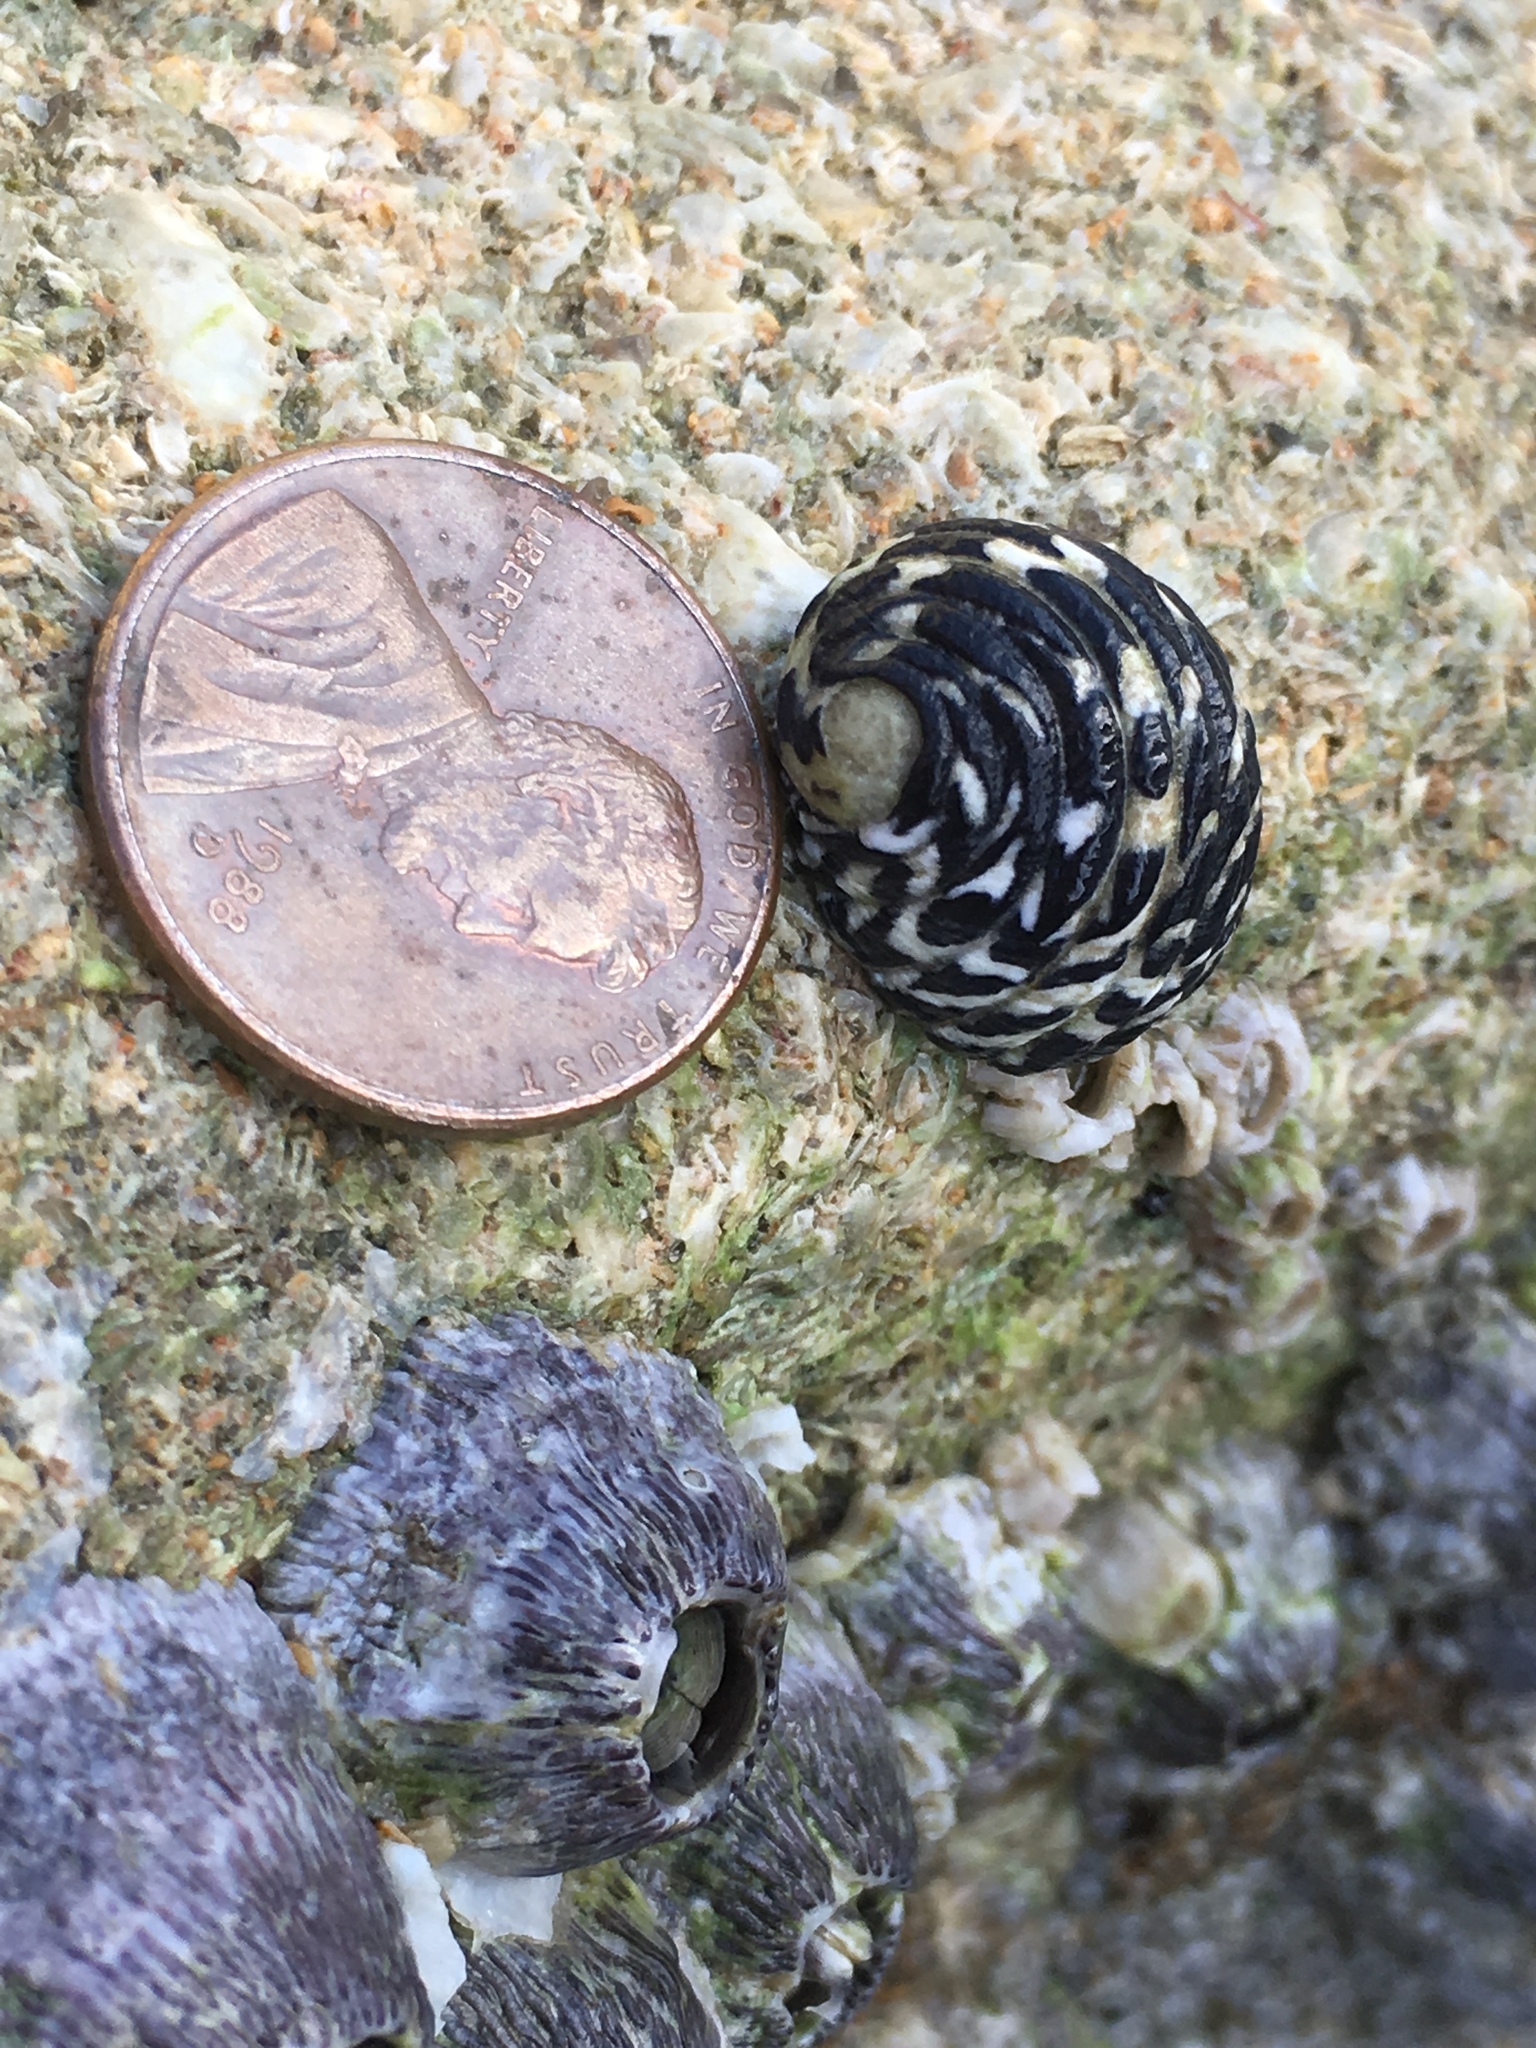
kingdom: Animalia
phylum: Mollusca
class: Gastropoda
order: Cycloneritida
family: Neritidae
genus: Nerita
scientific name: Nerita tessellata
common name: Checkered nerite
